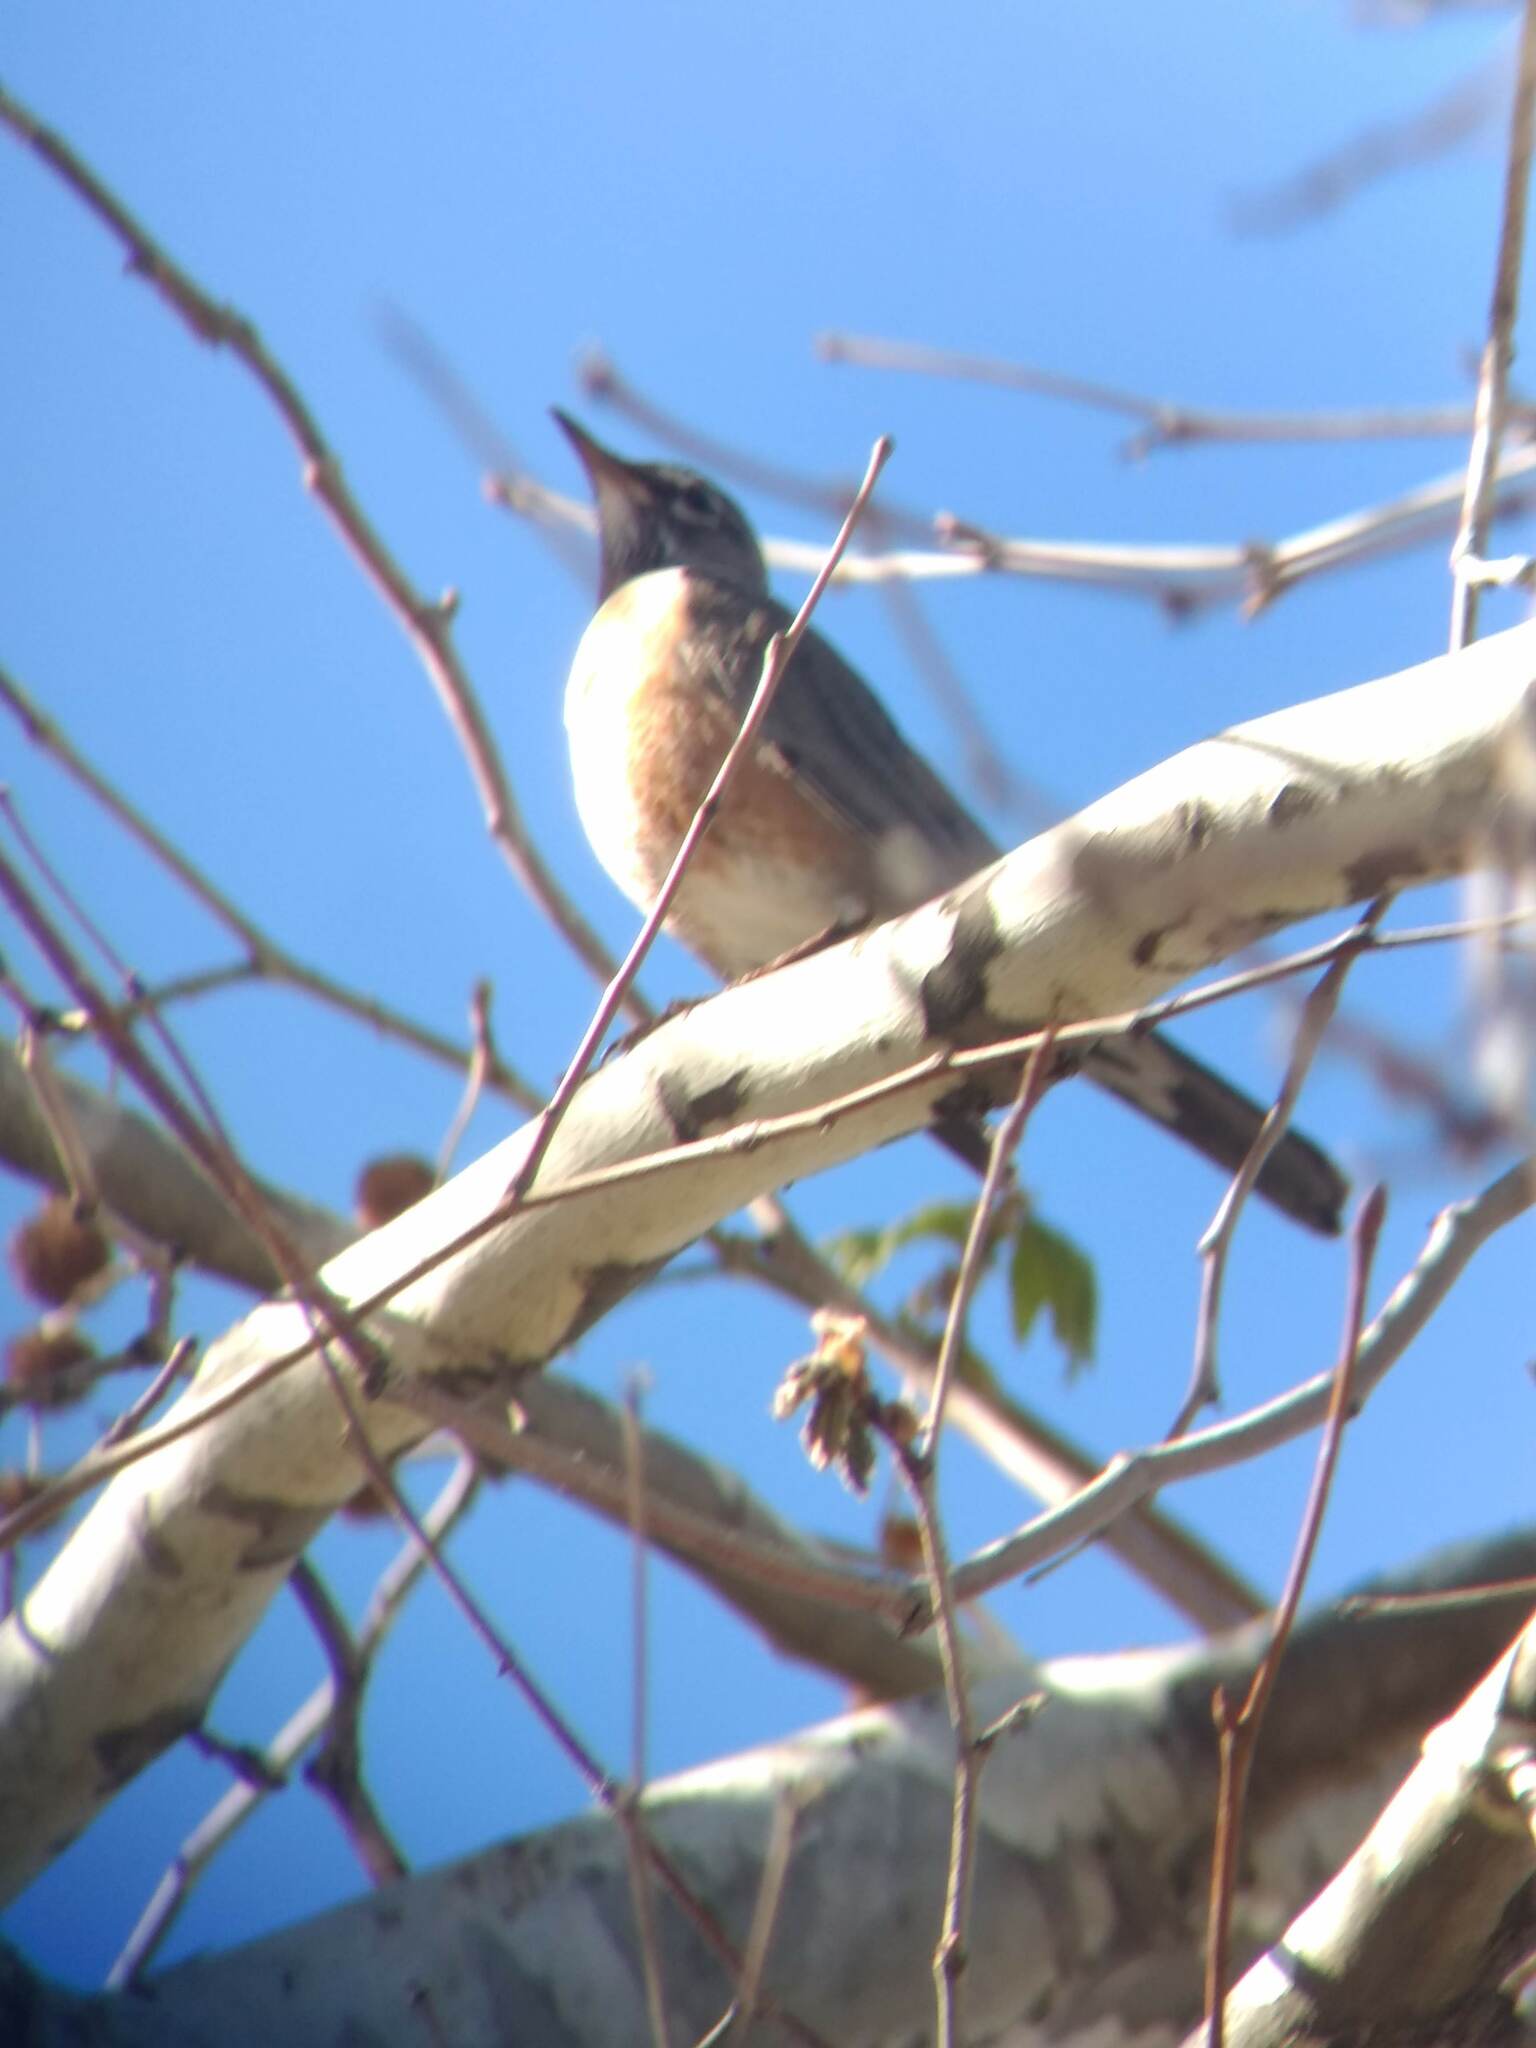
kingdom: Animalia
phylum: Chordata
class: Aves
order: Passeriformes
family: Turdidae
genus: Turdus
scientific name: Turdus migratorius
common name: American robin
